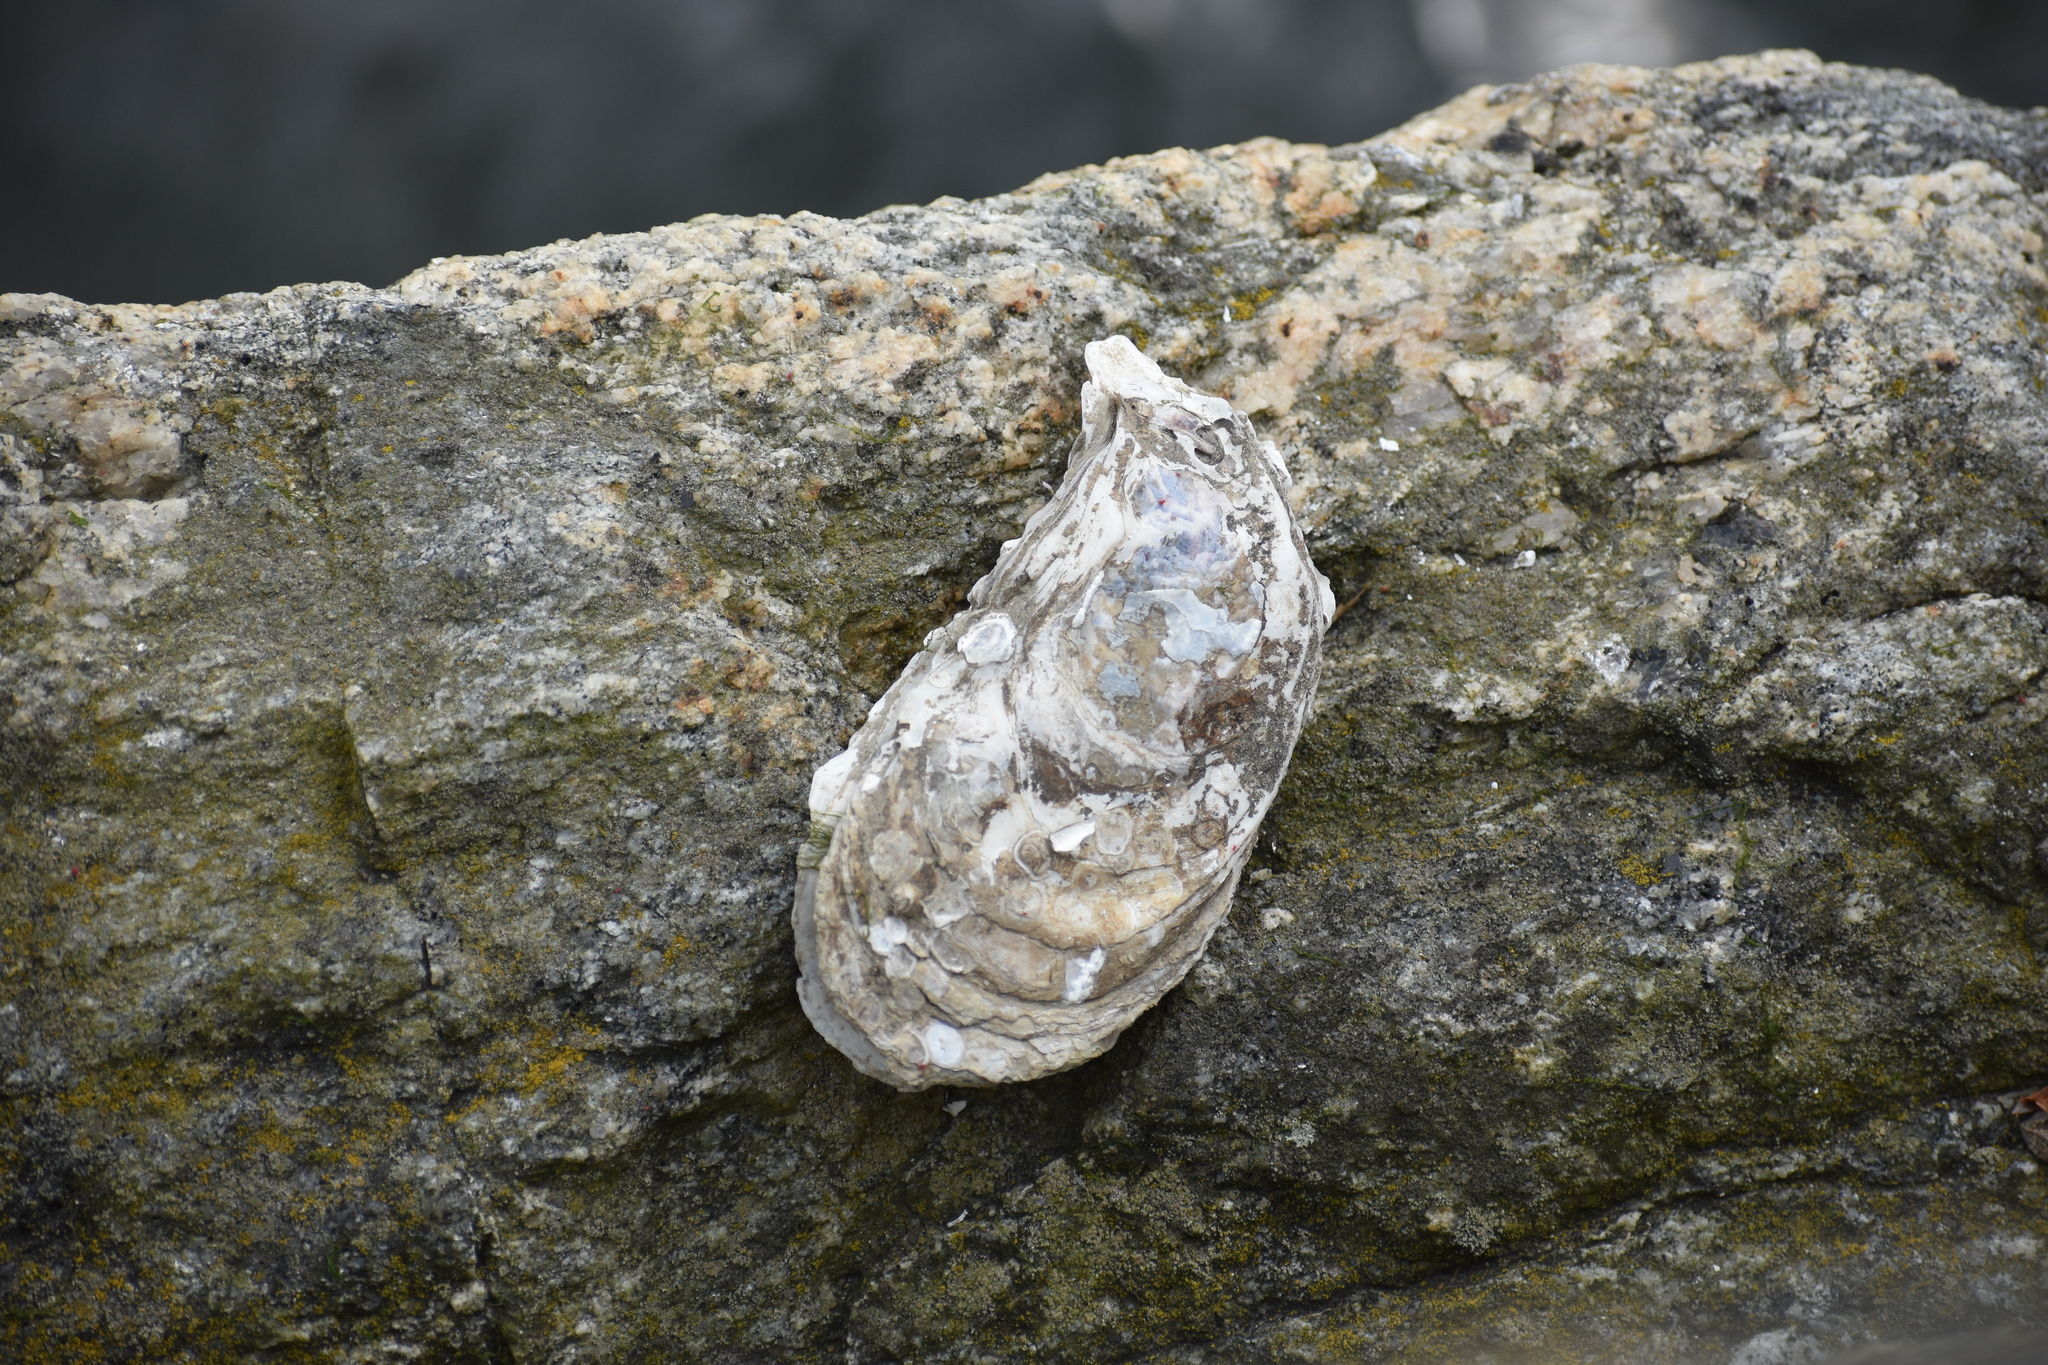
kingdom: Animalia
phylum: Mollusca
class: Bivalvia
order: Ostreida
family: Ostreidae
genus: Crassostrea
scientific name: Crassostrea virginica
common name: American oyster
